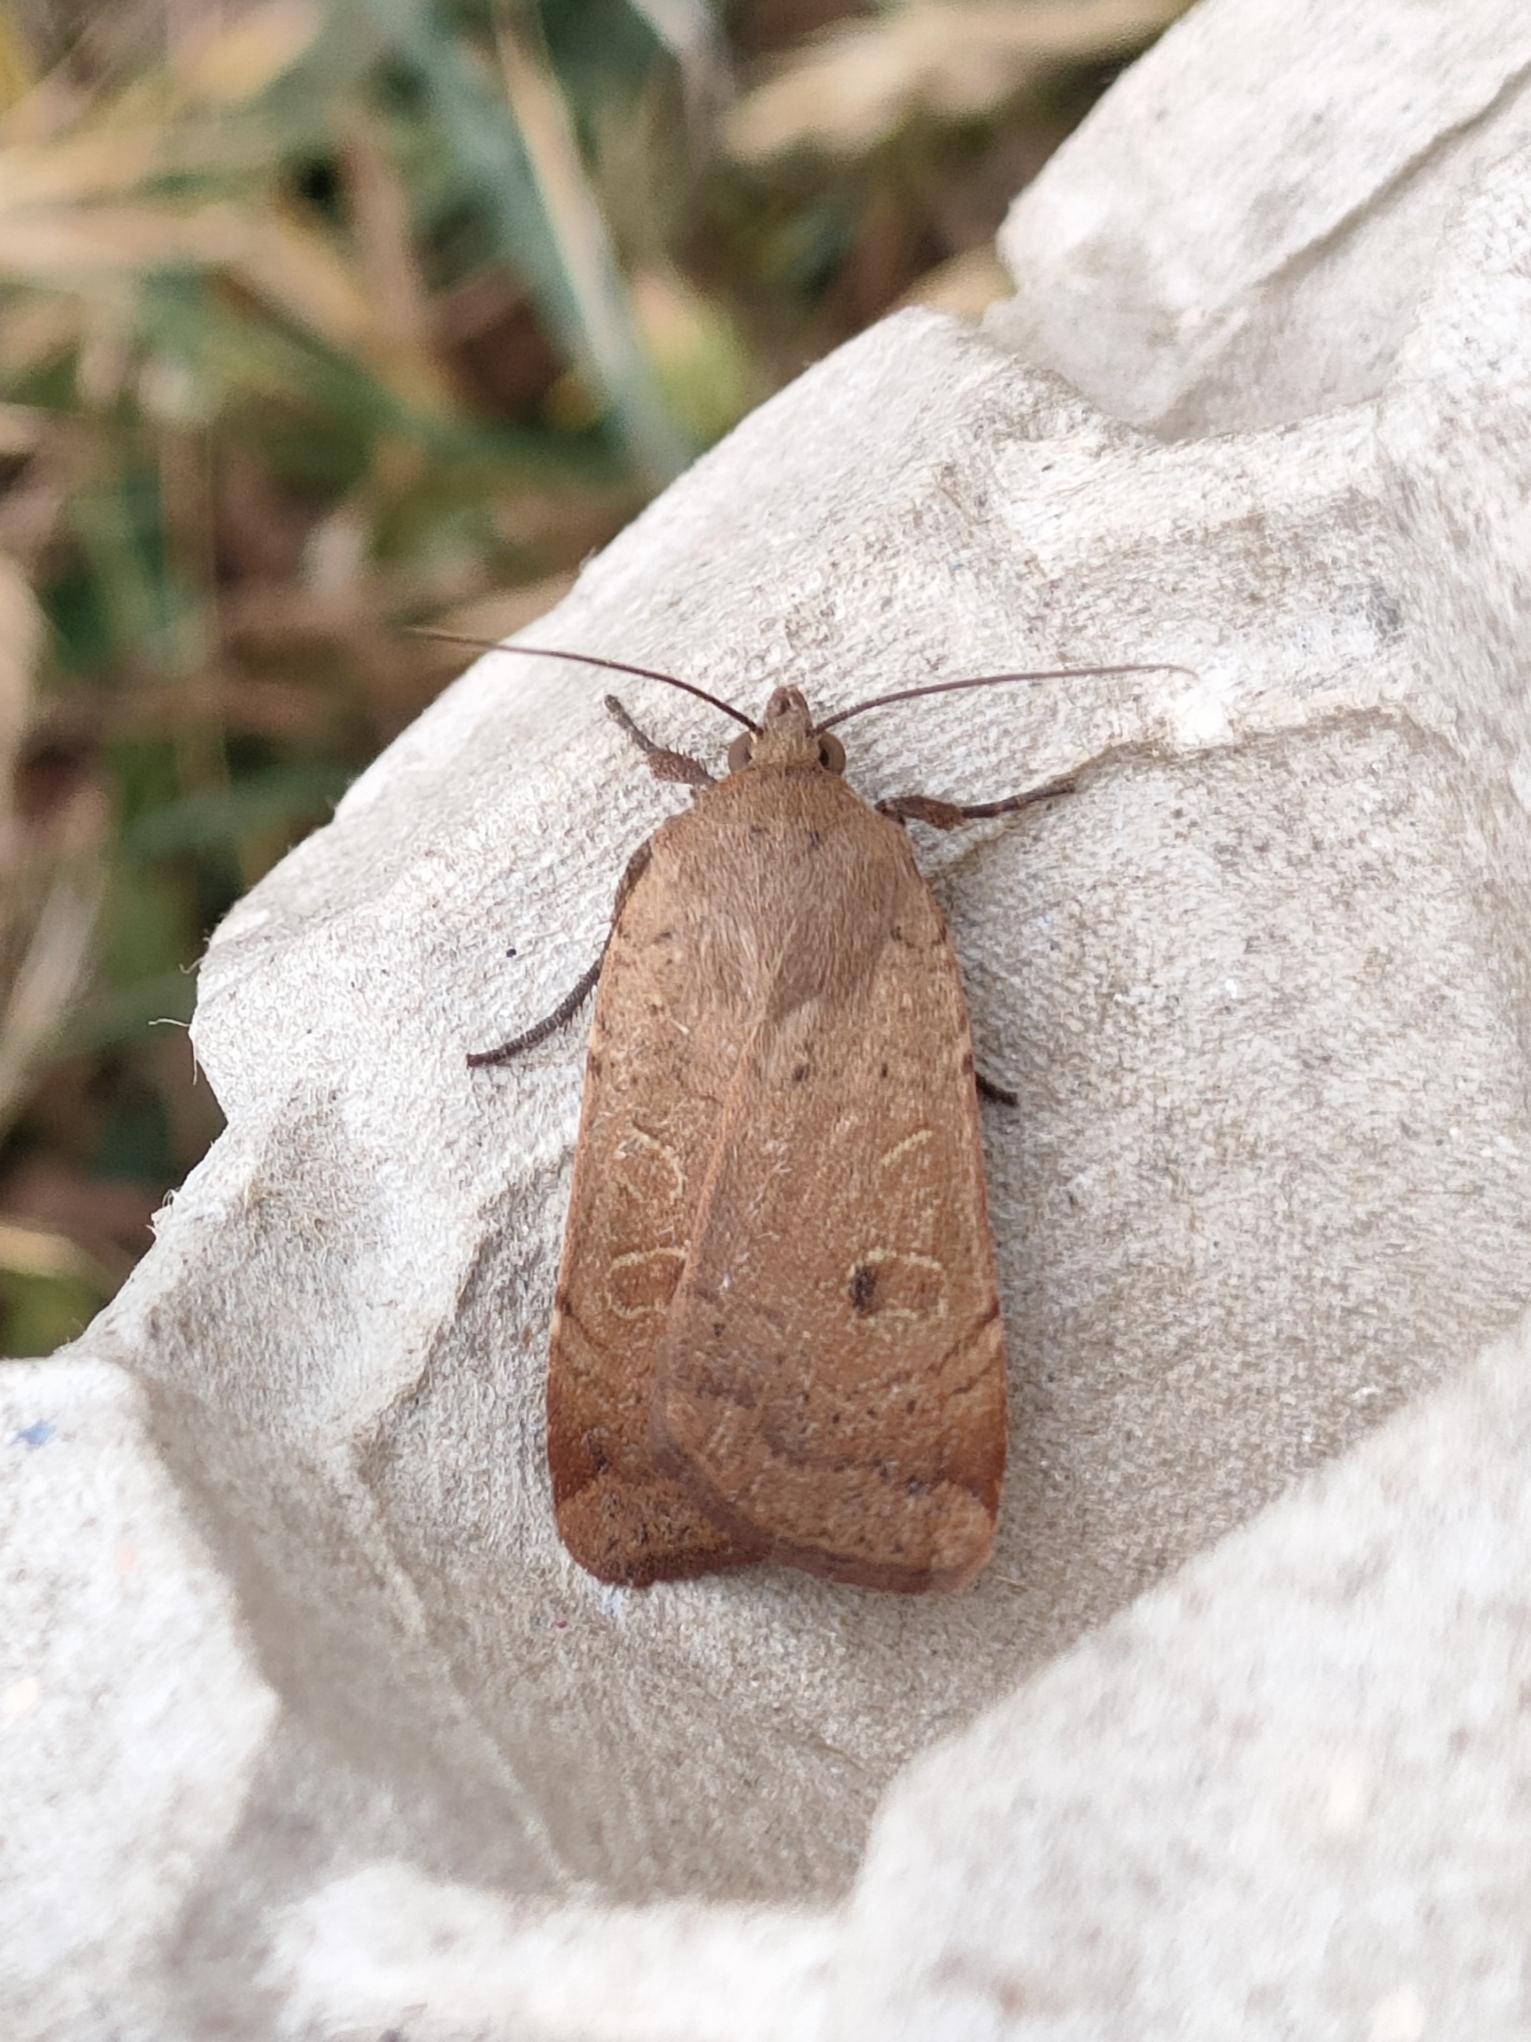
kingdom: Animalia
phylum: Arthropoda
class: Insecta
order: Lepidoptera
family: Noctuidae
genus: Noctua
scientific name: Noctua comes
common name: Lesser yellow underwing
